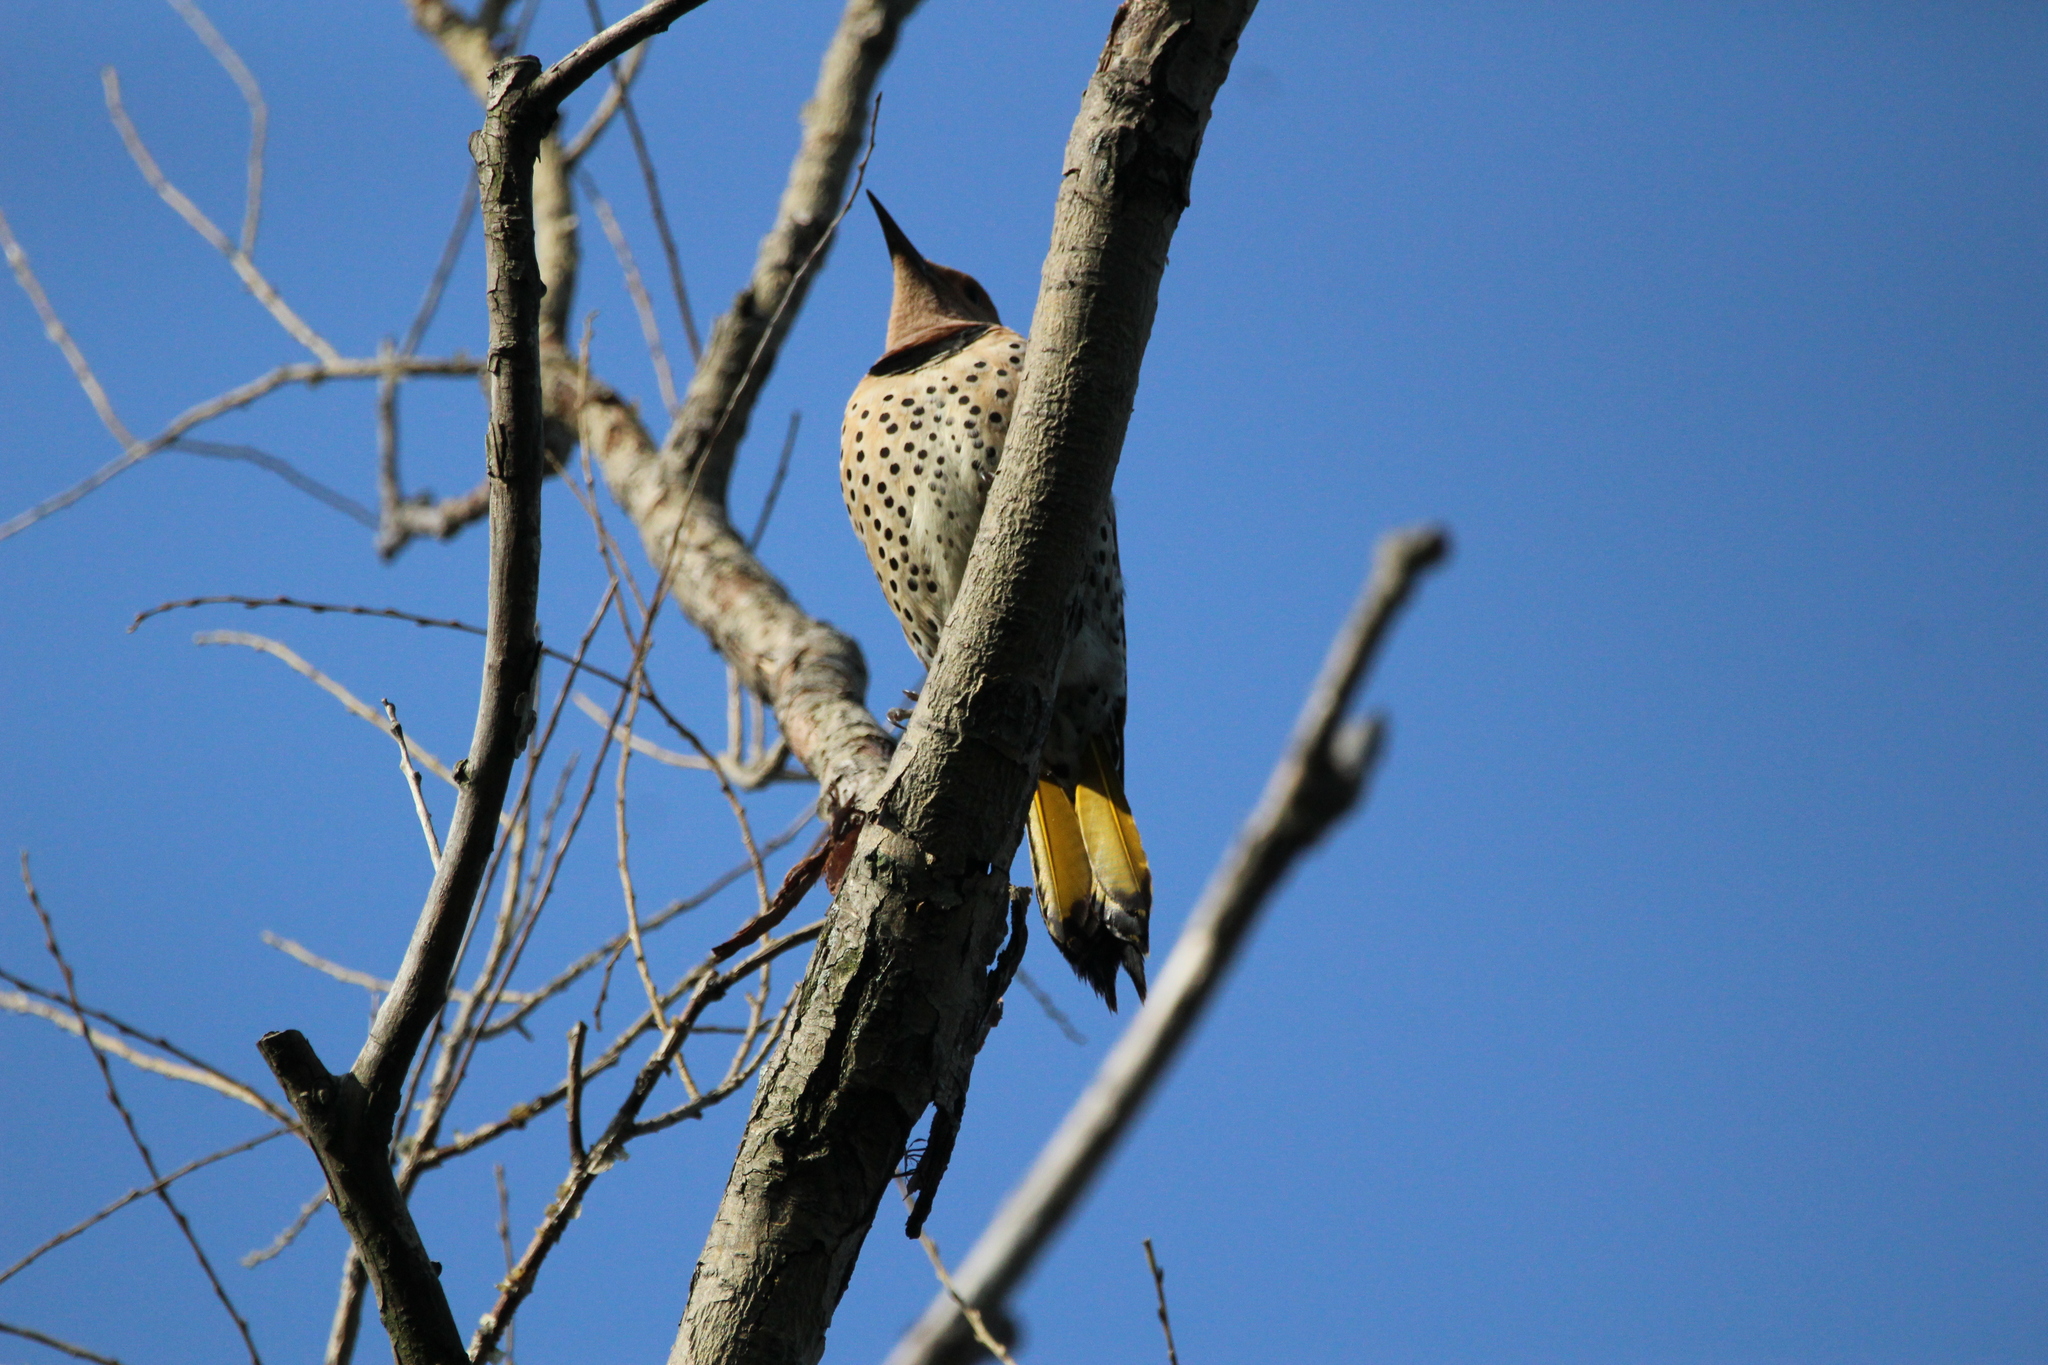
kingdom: Animalia
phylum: Chordata
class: Aves
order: Piciformes
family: Picidae
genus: Colaptes
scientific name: Colaptes auratus
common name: Northern flicker
